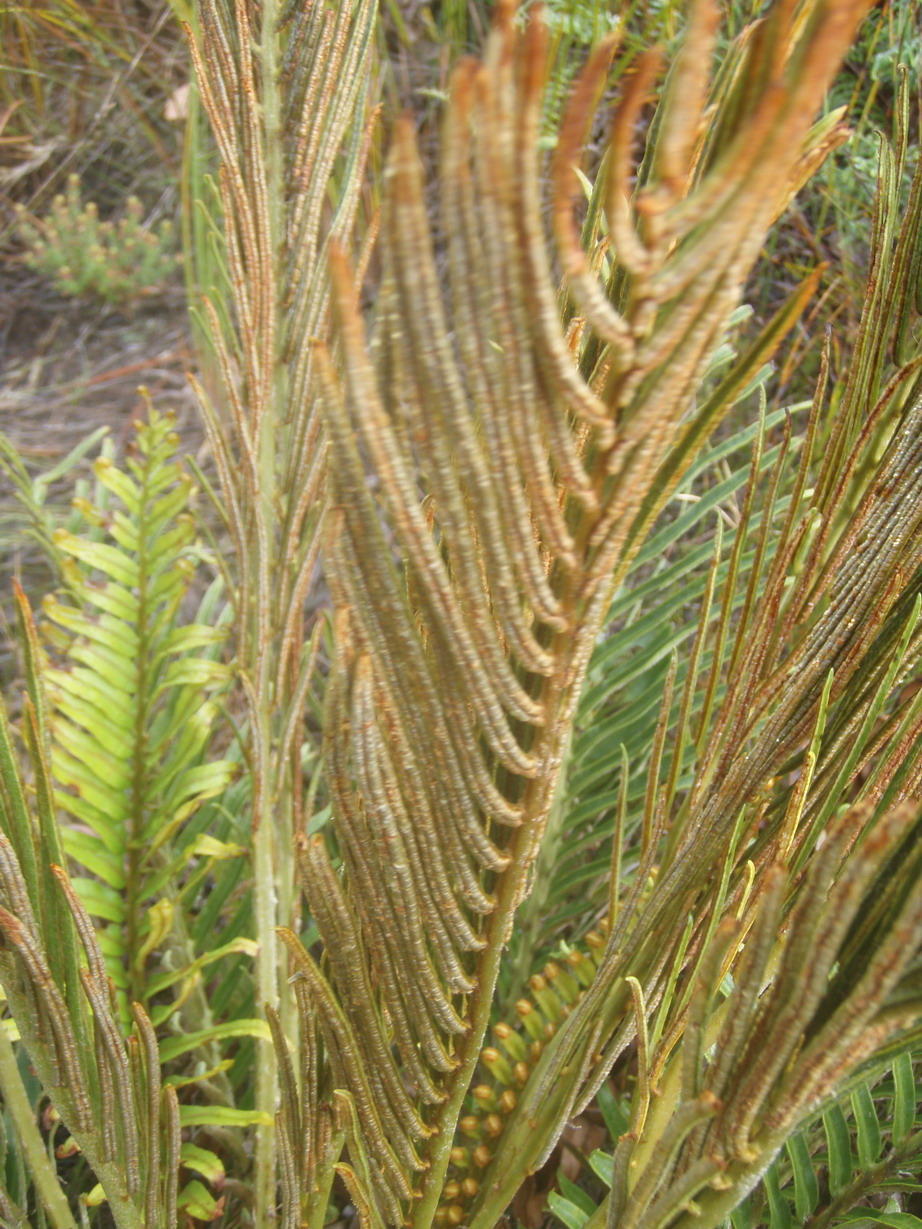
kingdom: Plantae
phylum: Tracheophyta
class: Polypodiopsida
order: Polypodiales
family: Blechnaceae
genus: Lomariocycas
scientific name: Lomariocycas tabularis
